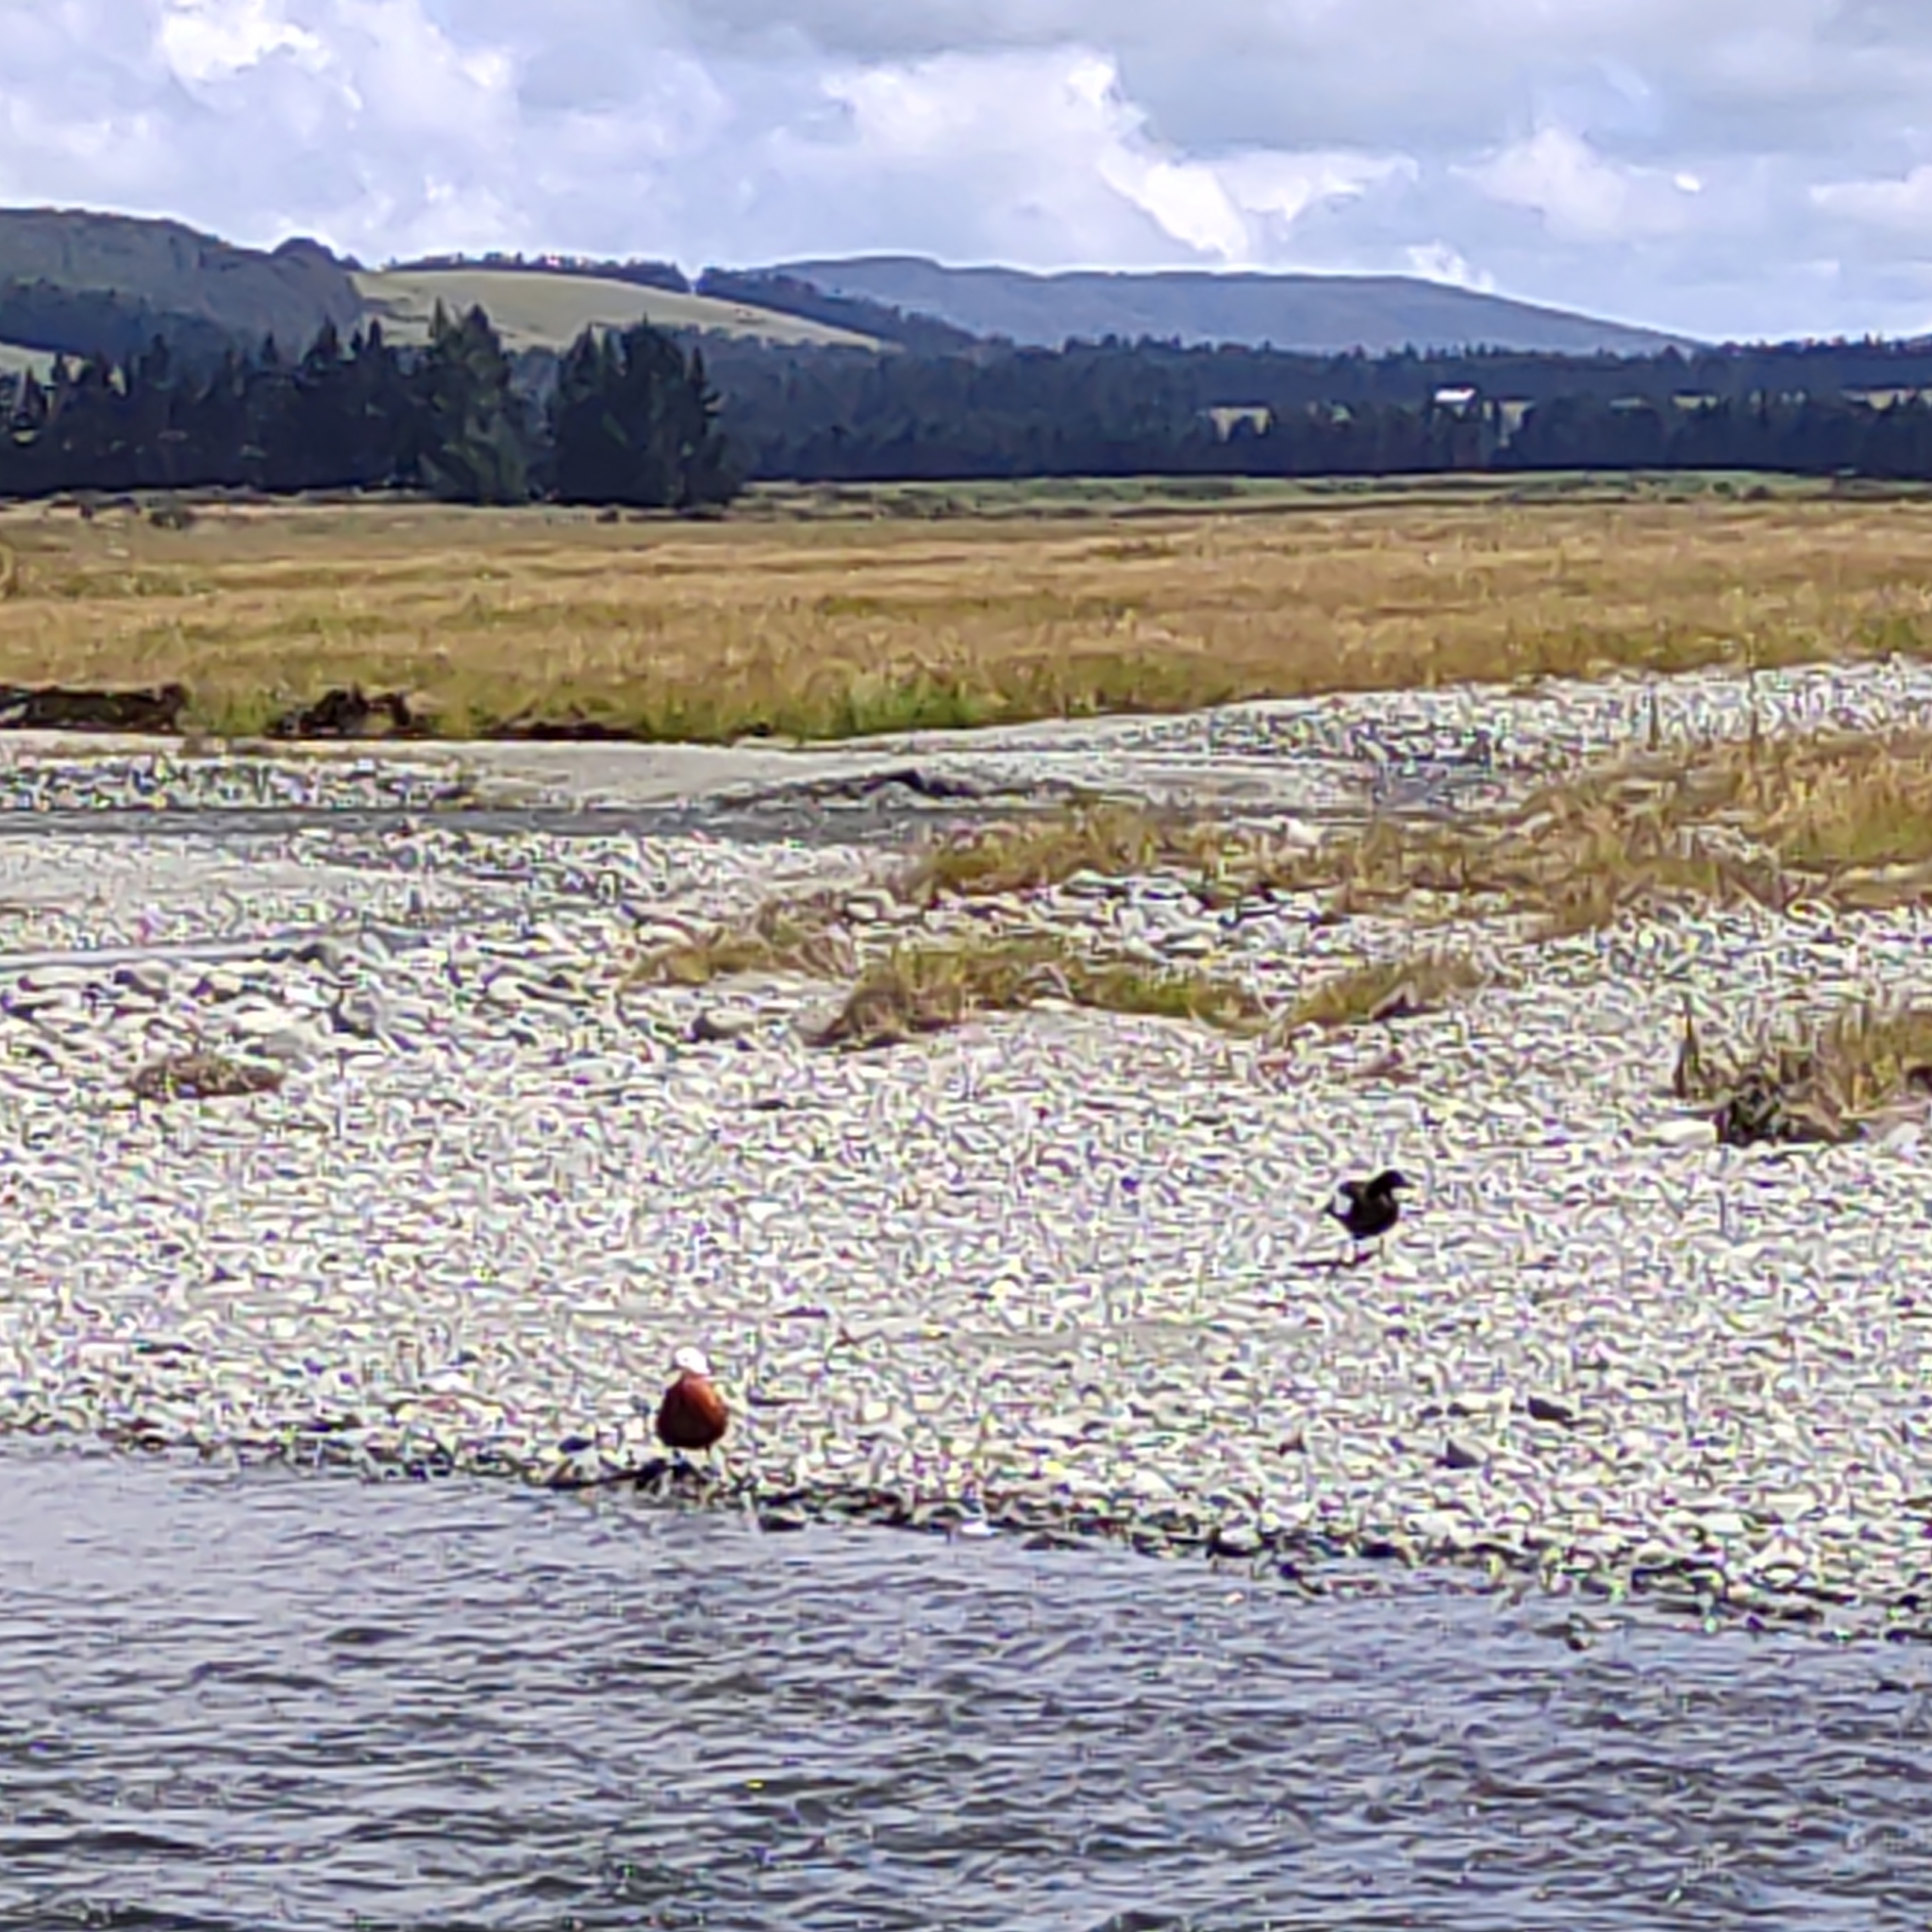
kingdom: Animalia
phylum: Chordata
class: Aves
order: Anseriformes
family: Anatidae
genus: Tadorna
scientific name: Tadorna variegata
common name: Paradise shelduck
